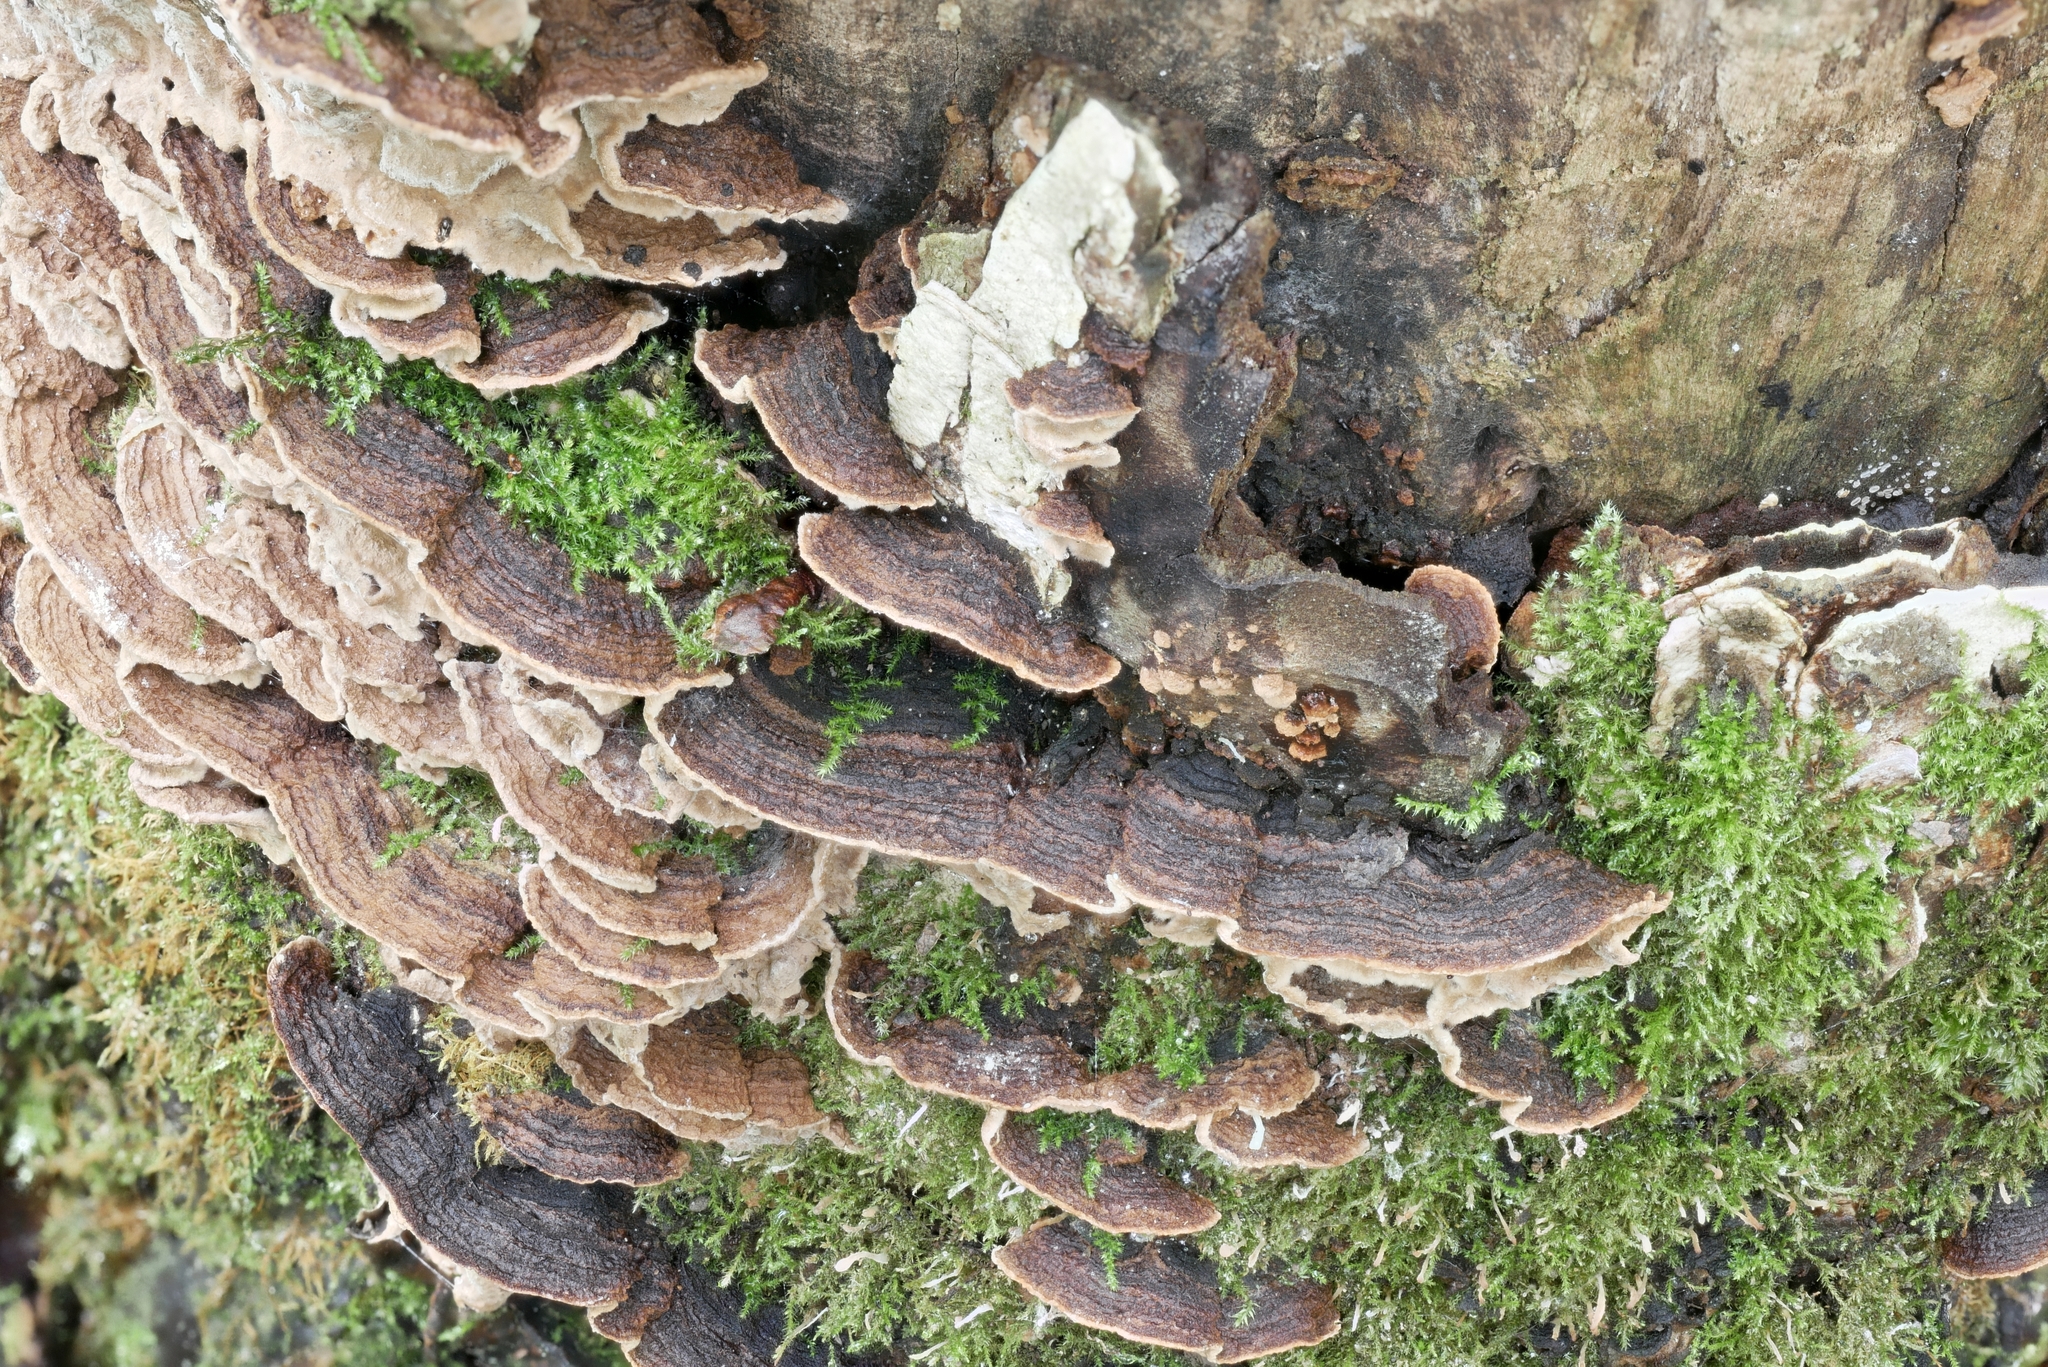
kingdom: Fungi
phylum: Basidiomycota
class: Agaricomycetes
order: Polyporales
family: Polyporaceae
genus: Dentocorticium
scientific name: Dentocorticium portoricense
